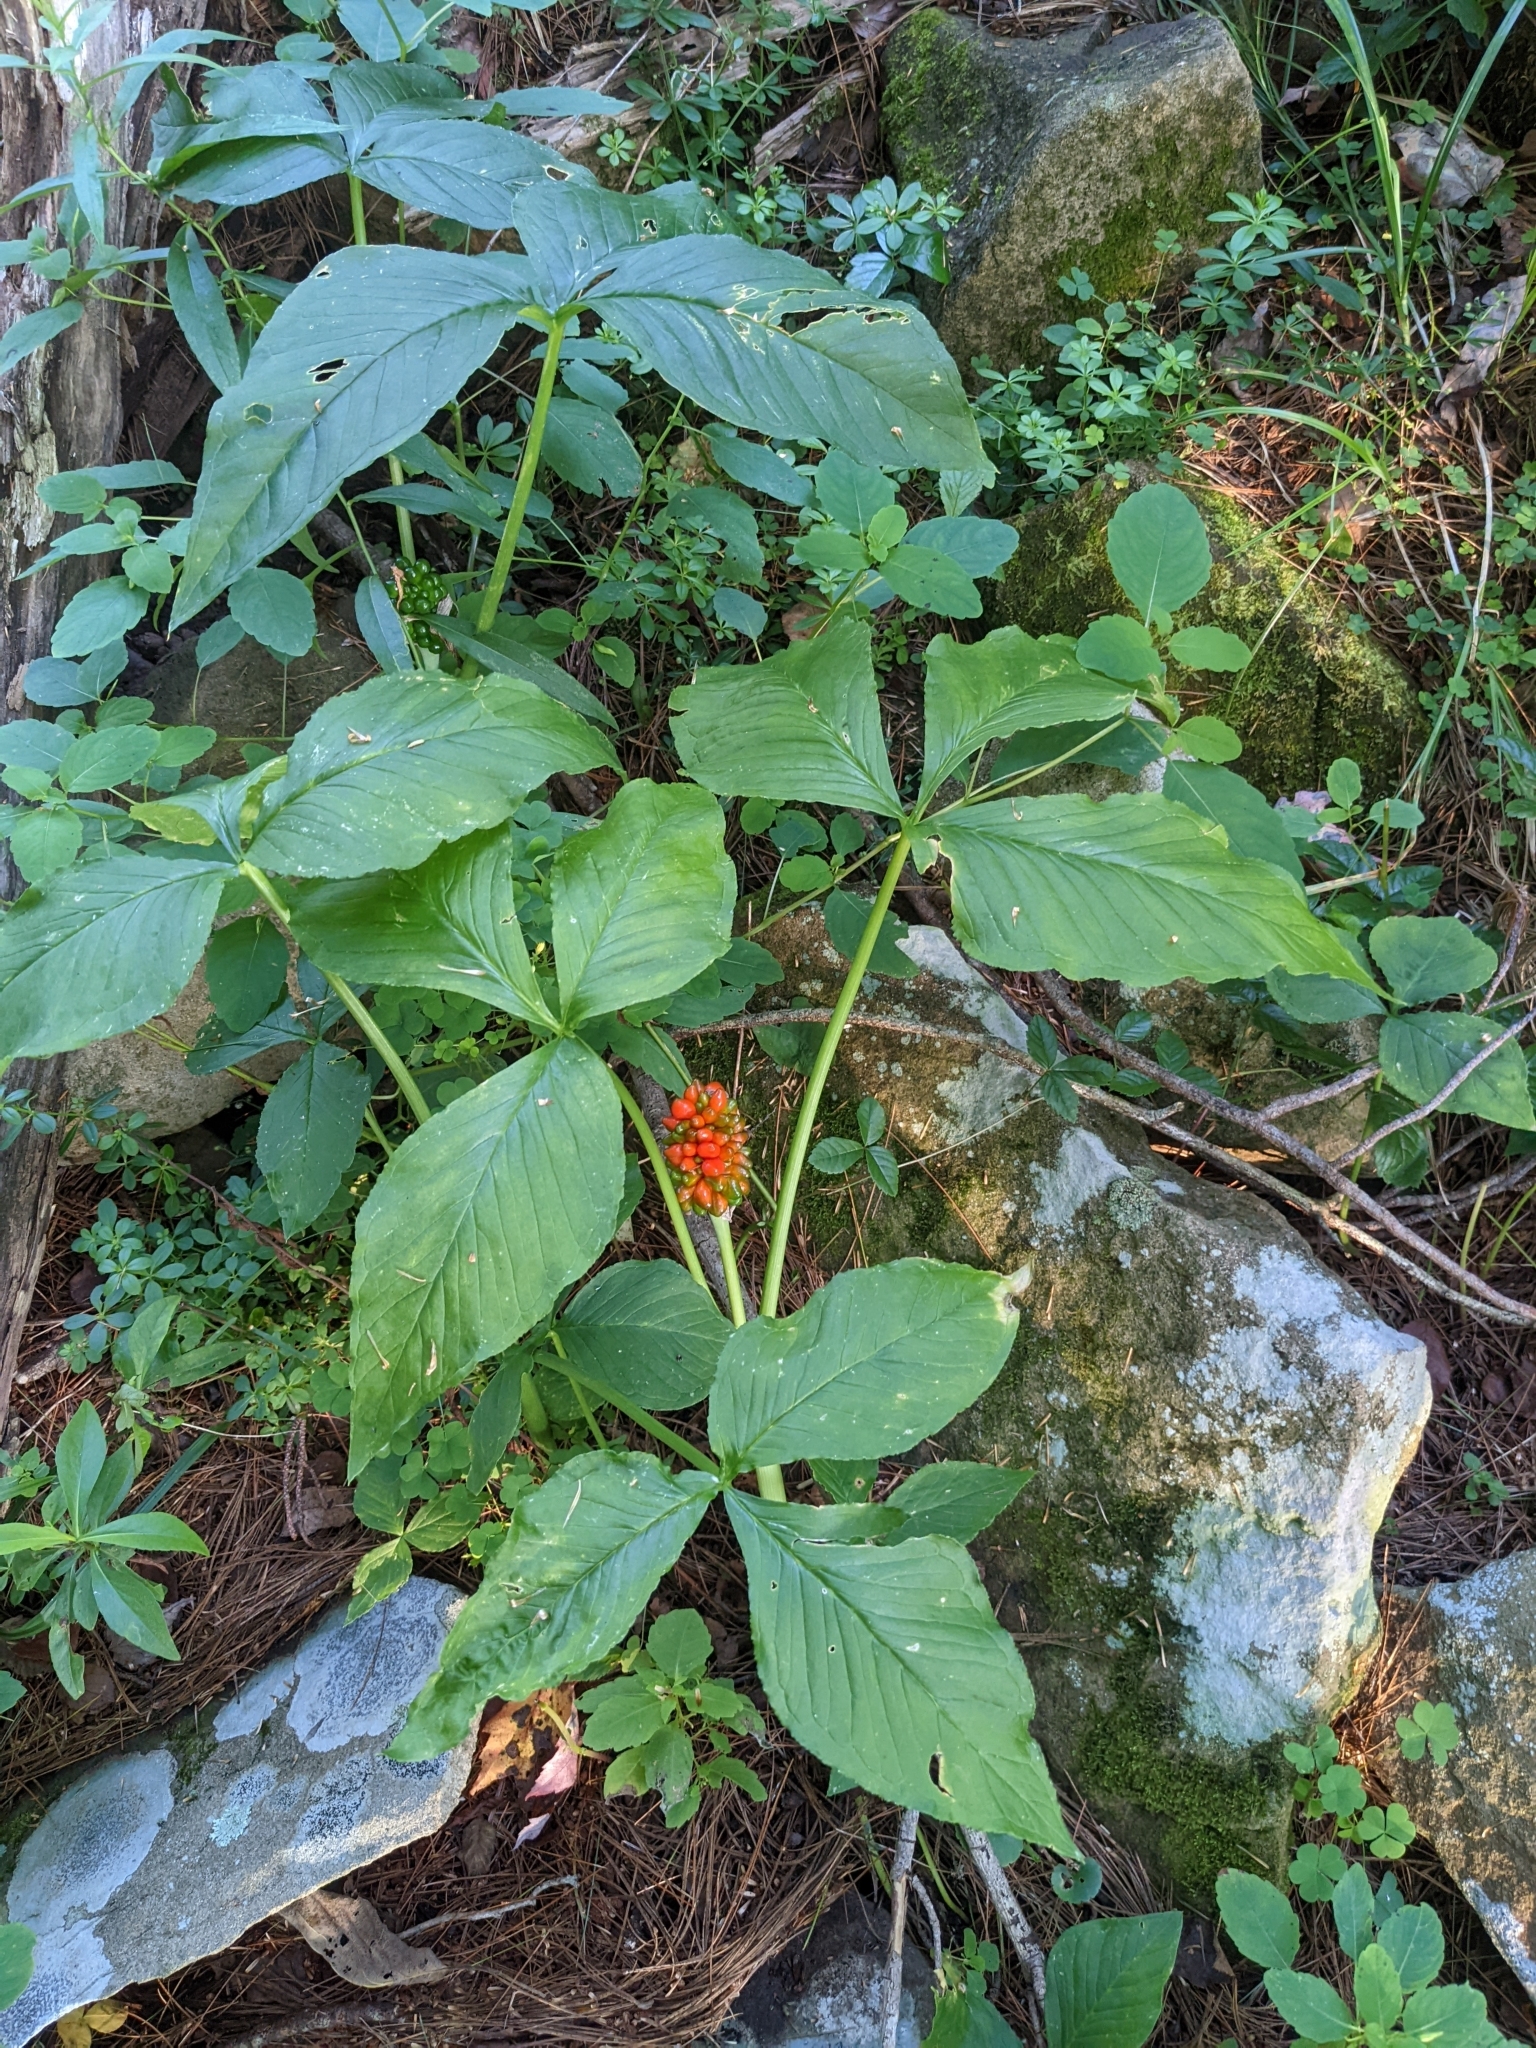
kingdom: Plantae
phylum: Tracheophyta
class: Liliopsida
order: Alismatales
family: Araceae
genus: Arisaema
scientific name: Arisaema triphyllum
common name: Jack-in-the-pulpit
